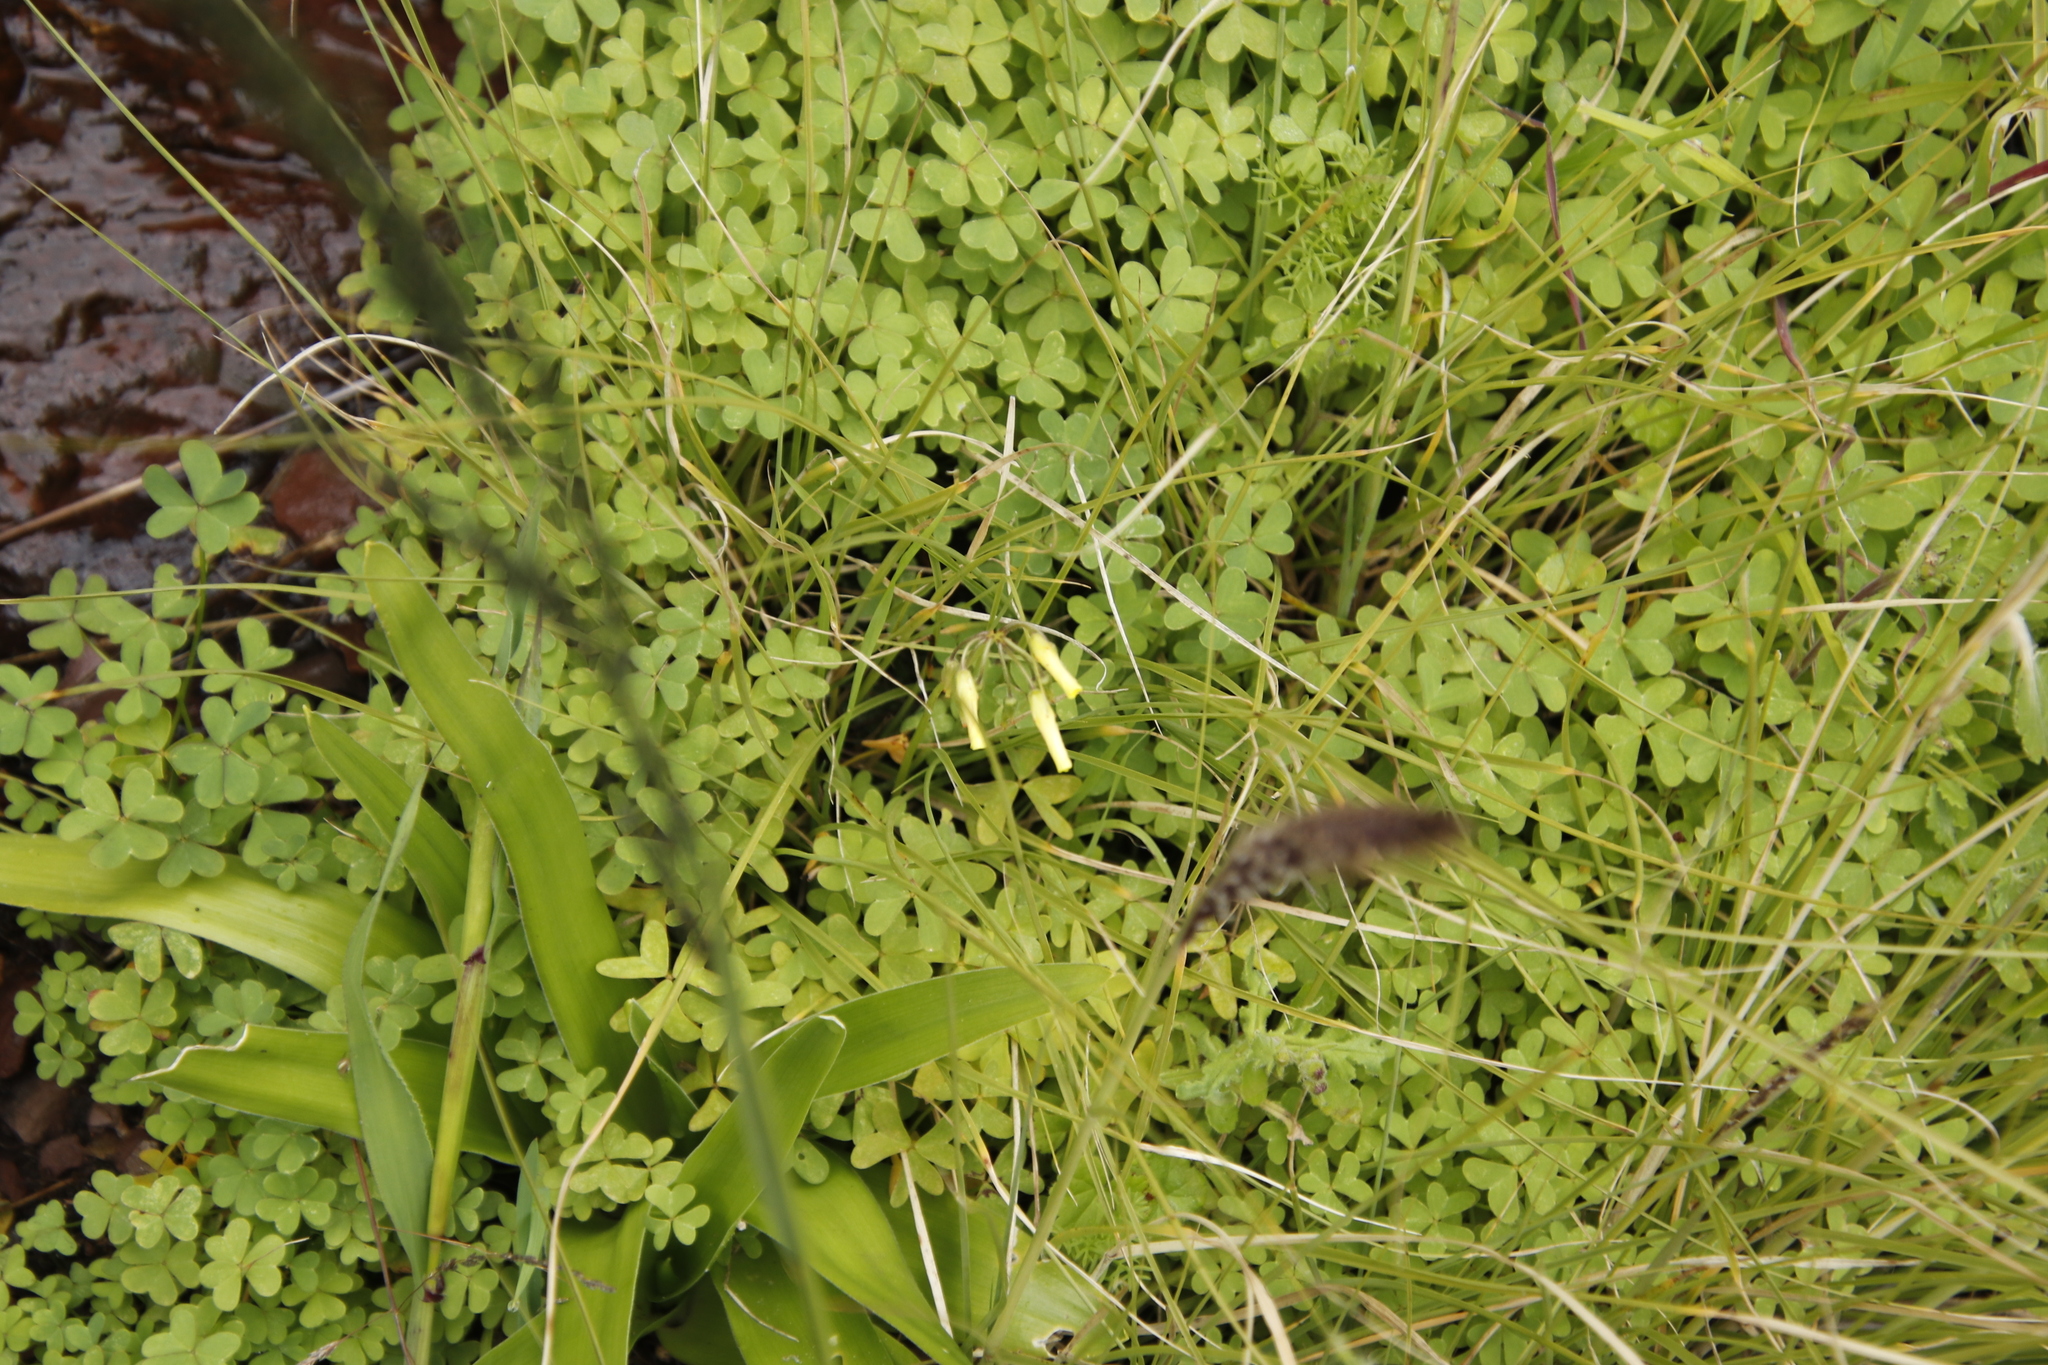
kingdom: Plantae
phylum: Tracheophyta
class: Magnoliopsida
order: Oxalidales
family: Oxalidaceae
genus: Oxalis
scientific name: Oxalis pes-caprae
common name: Bermuda-buttercup
